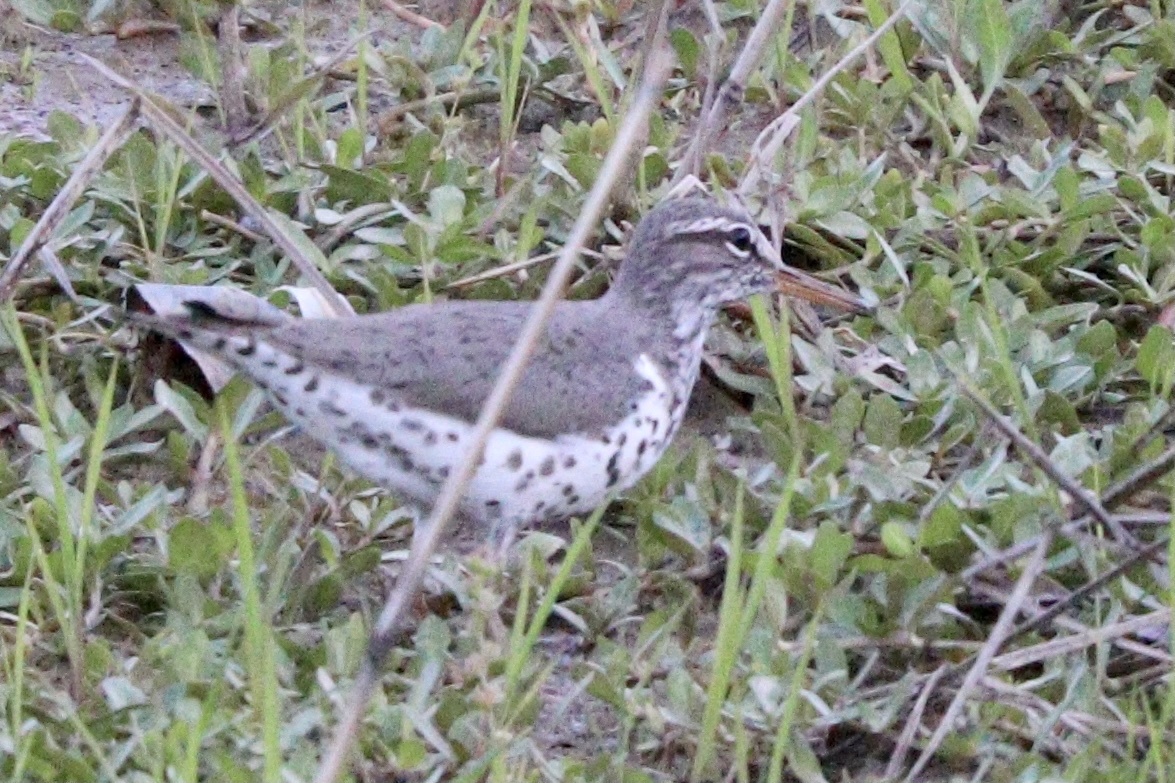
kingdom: Animalia
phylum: Chordata
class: Aves
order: Charadriiformes
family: Scolopacidae
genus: Actitis
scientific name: Actitis macularius
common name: Spotted sandpiper
